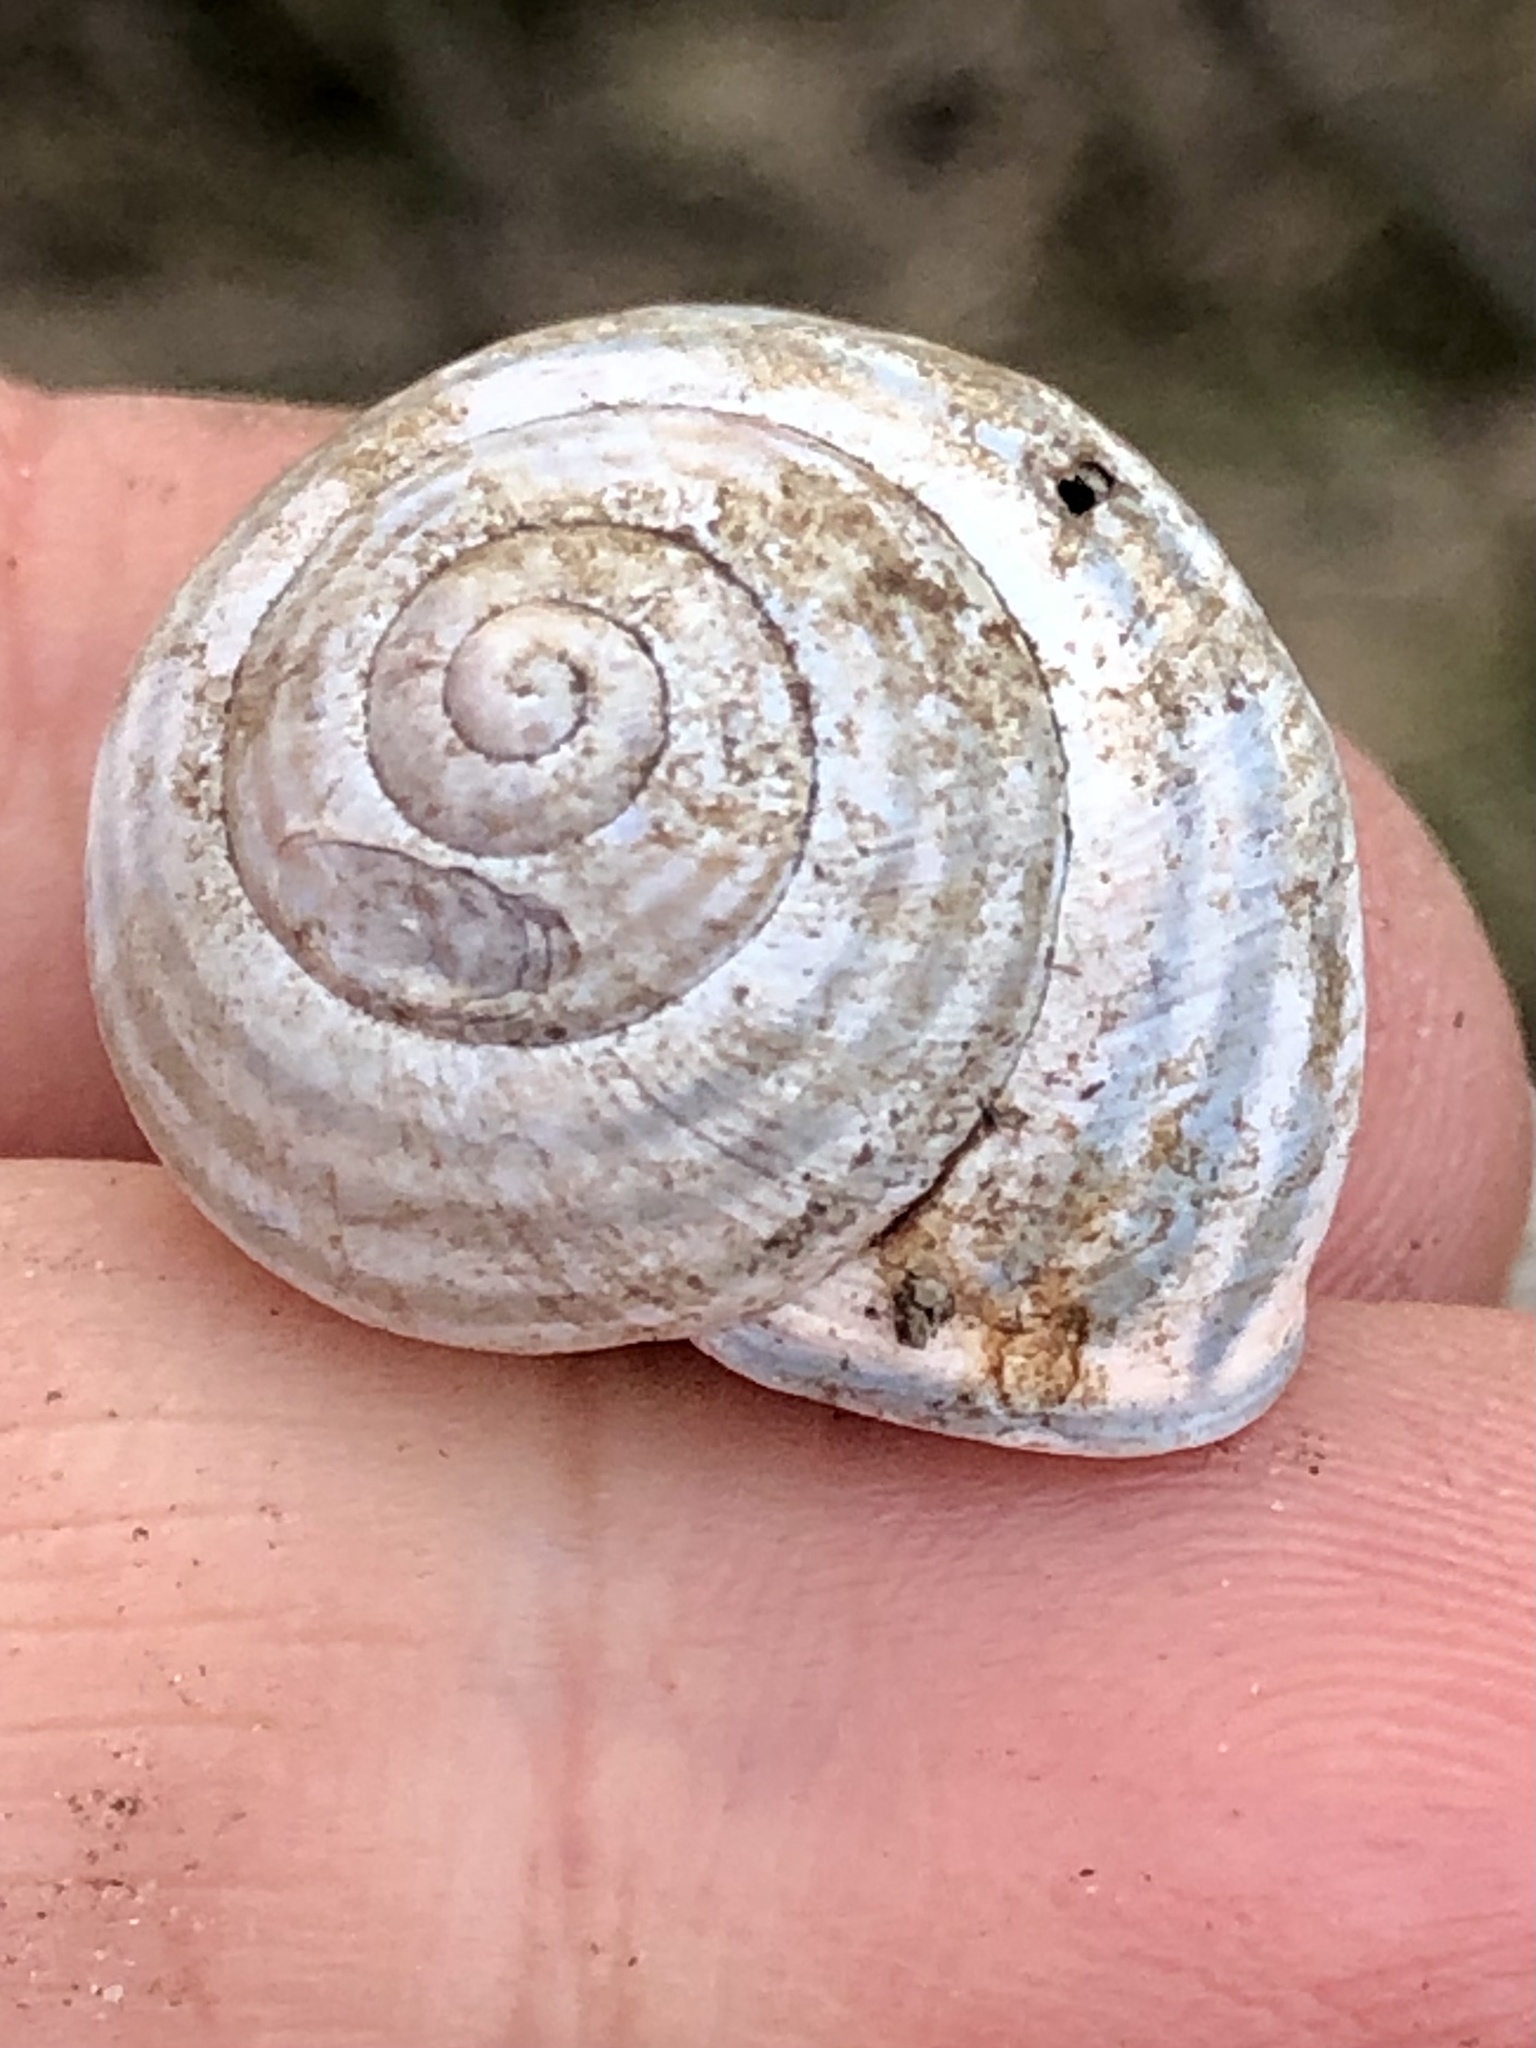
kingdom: Animalia
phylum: Mollusca
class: Gastropoda
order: Stylommatophora
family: Helicidae
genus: Cepaea
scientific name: Cepaea nemoralis
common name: Grovesnail
